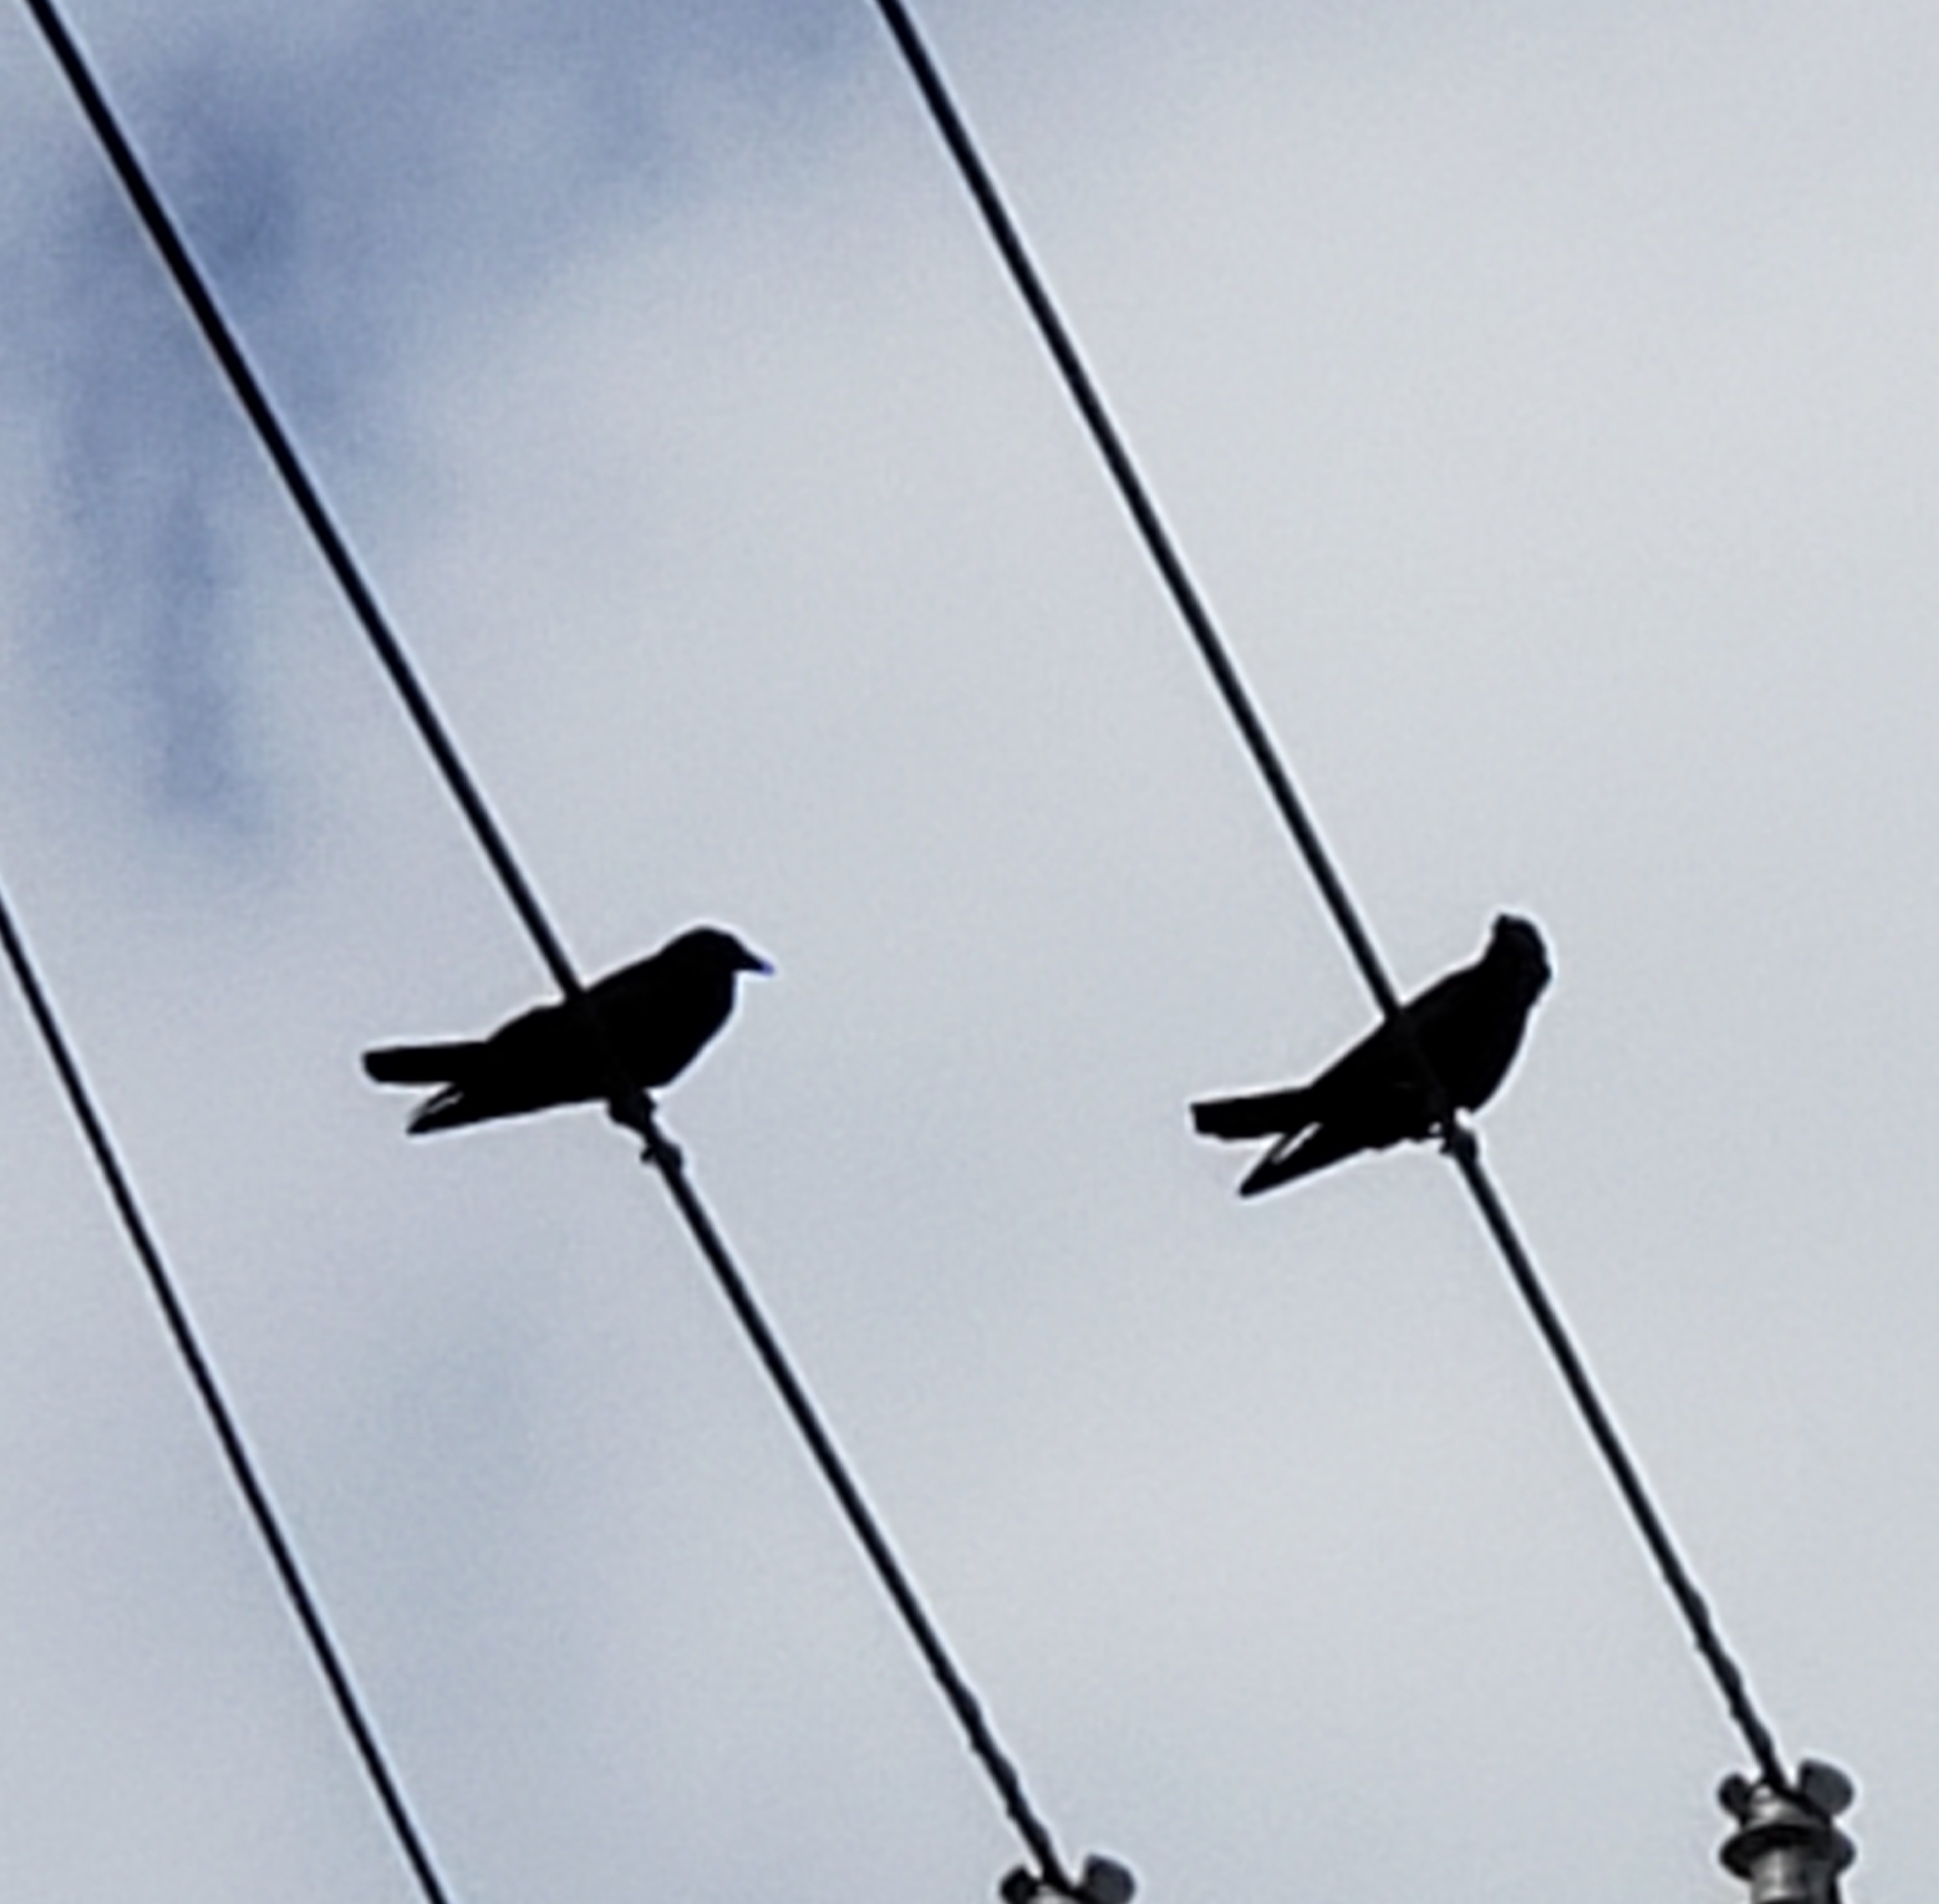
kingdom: Animalia
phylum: Chordata
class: Aves
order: Passeriformes
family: Corvidae
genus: Corvus
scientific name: Corvus
